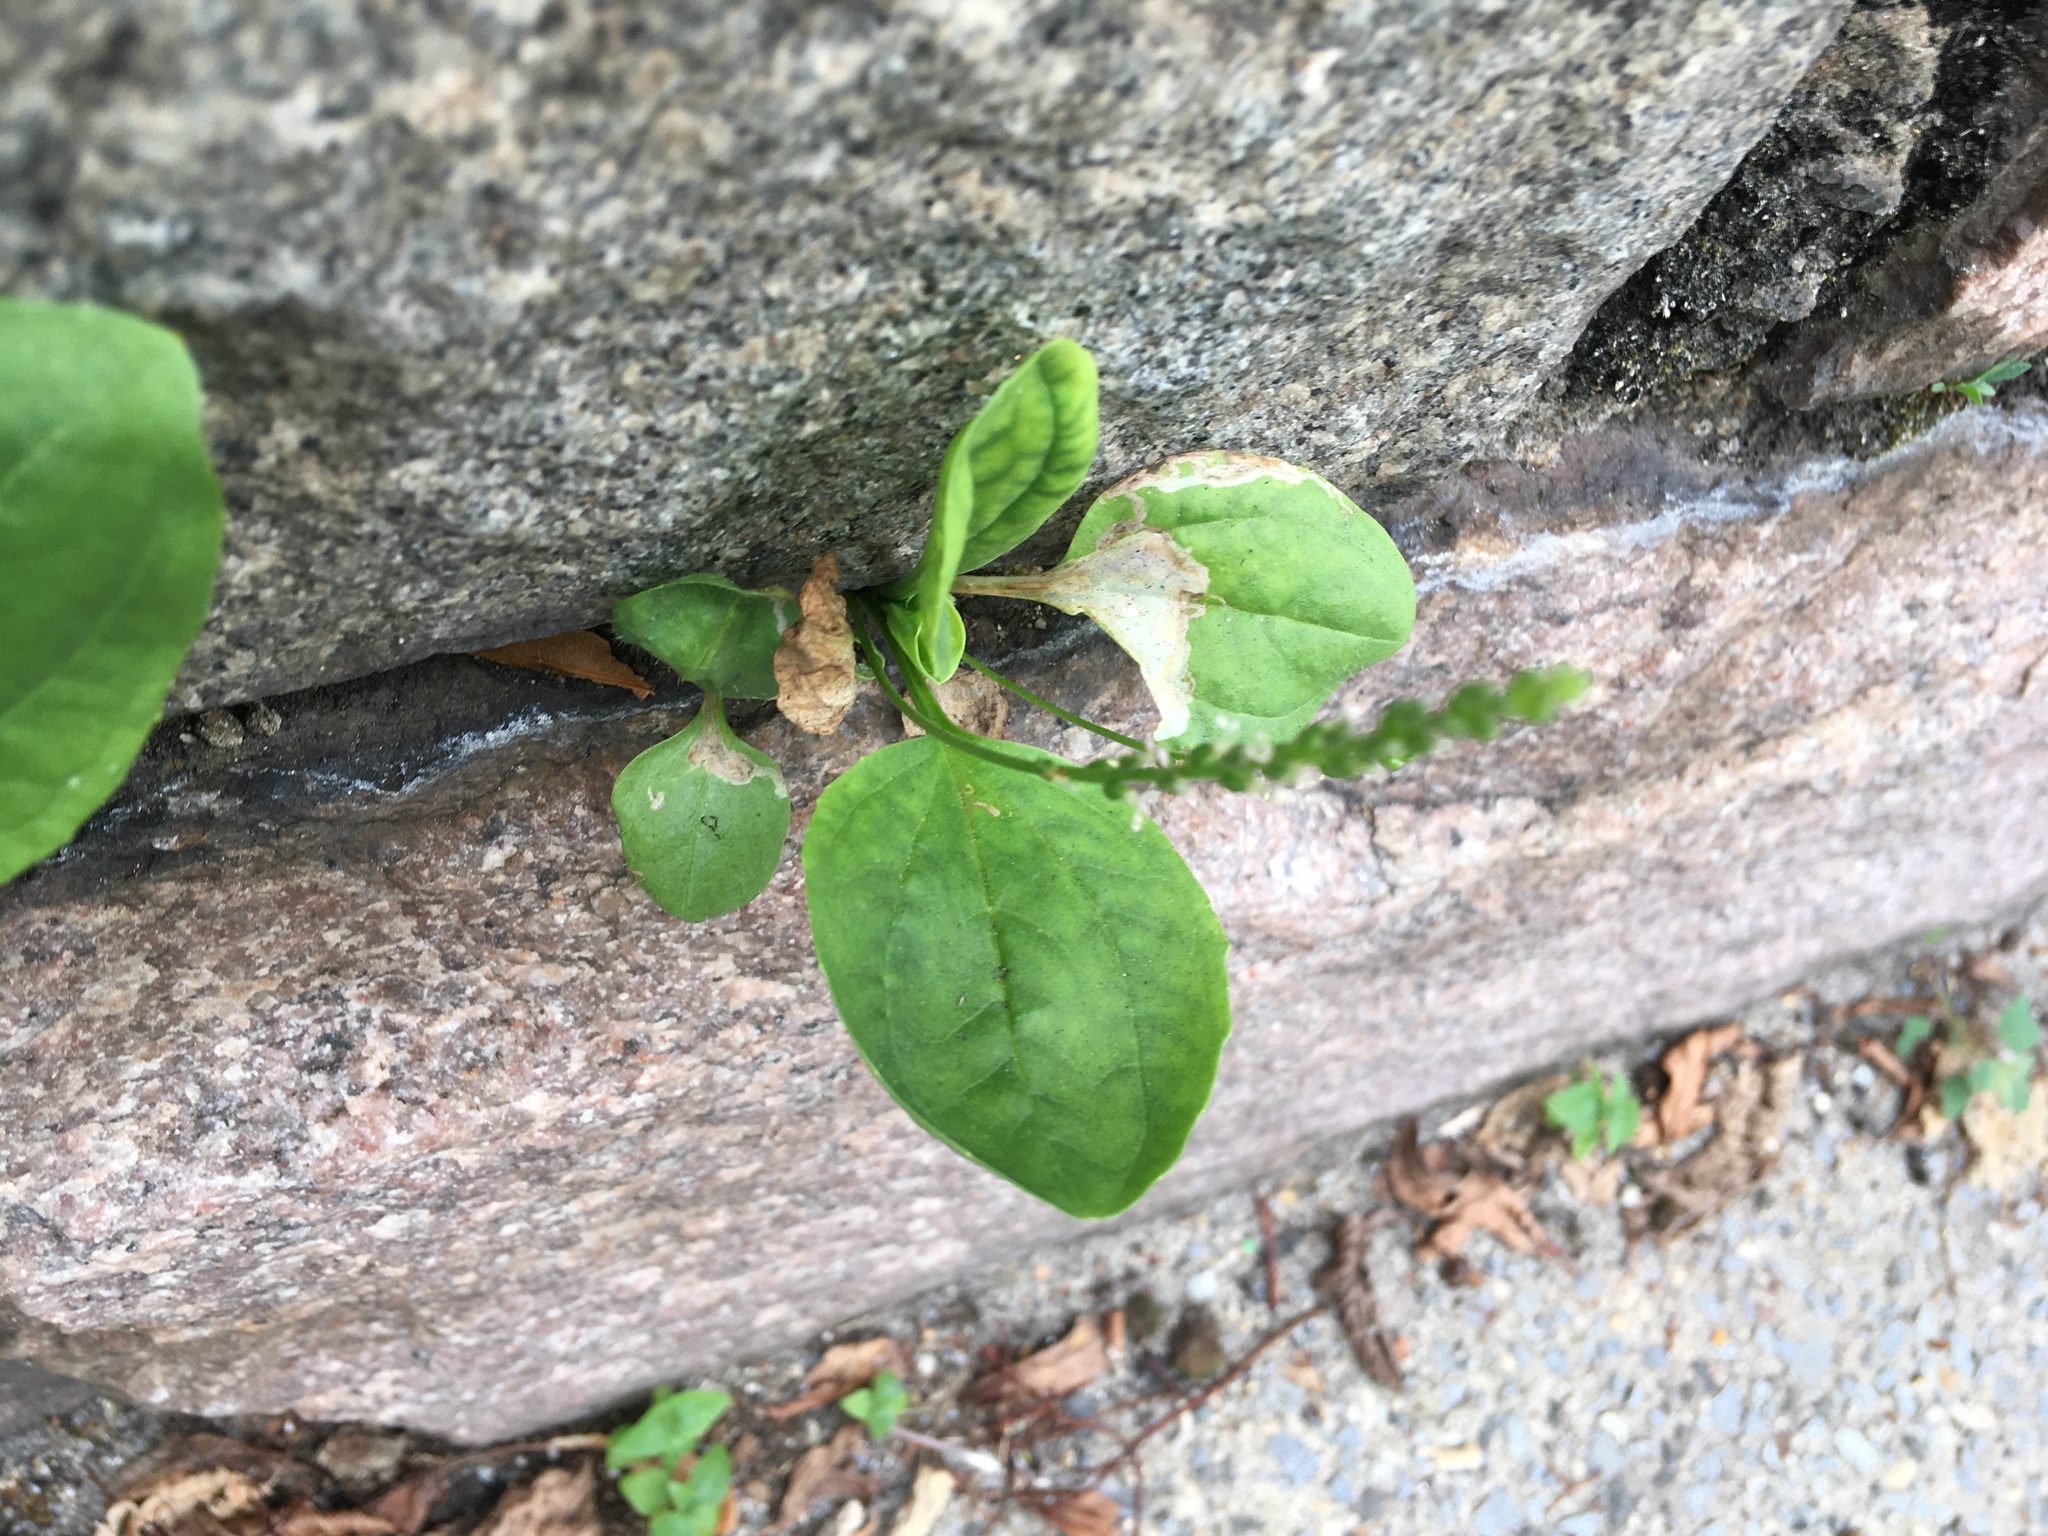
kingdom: Plantae
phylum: Tracheophyta
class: Magnoliopsida
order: Lamiales
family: Plantaginaceae
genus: Plantago
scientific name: Plantago major
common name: Common plantain
